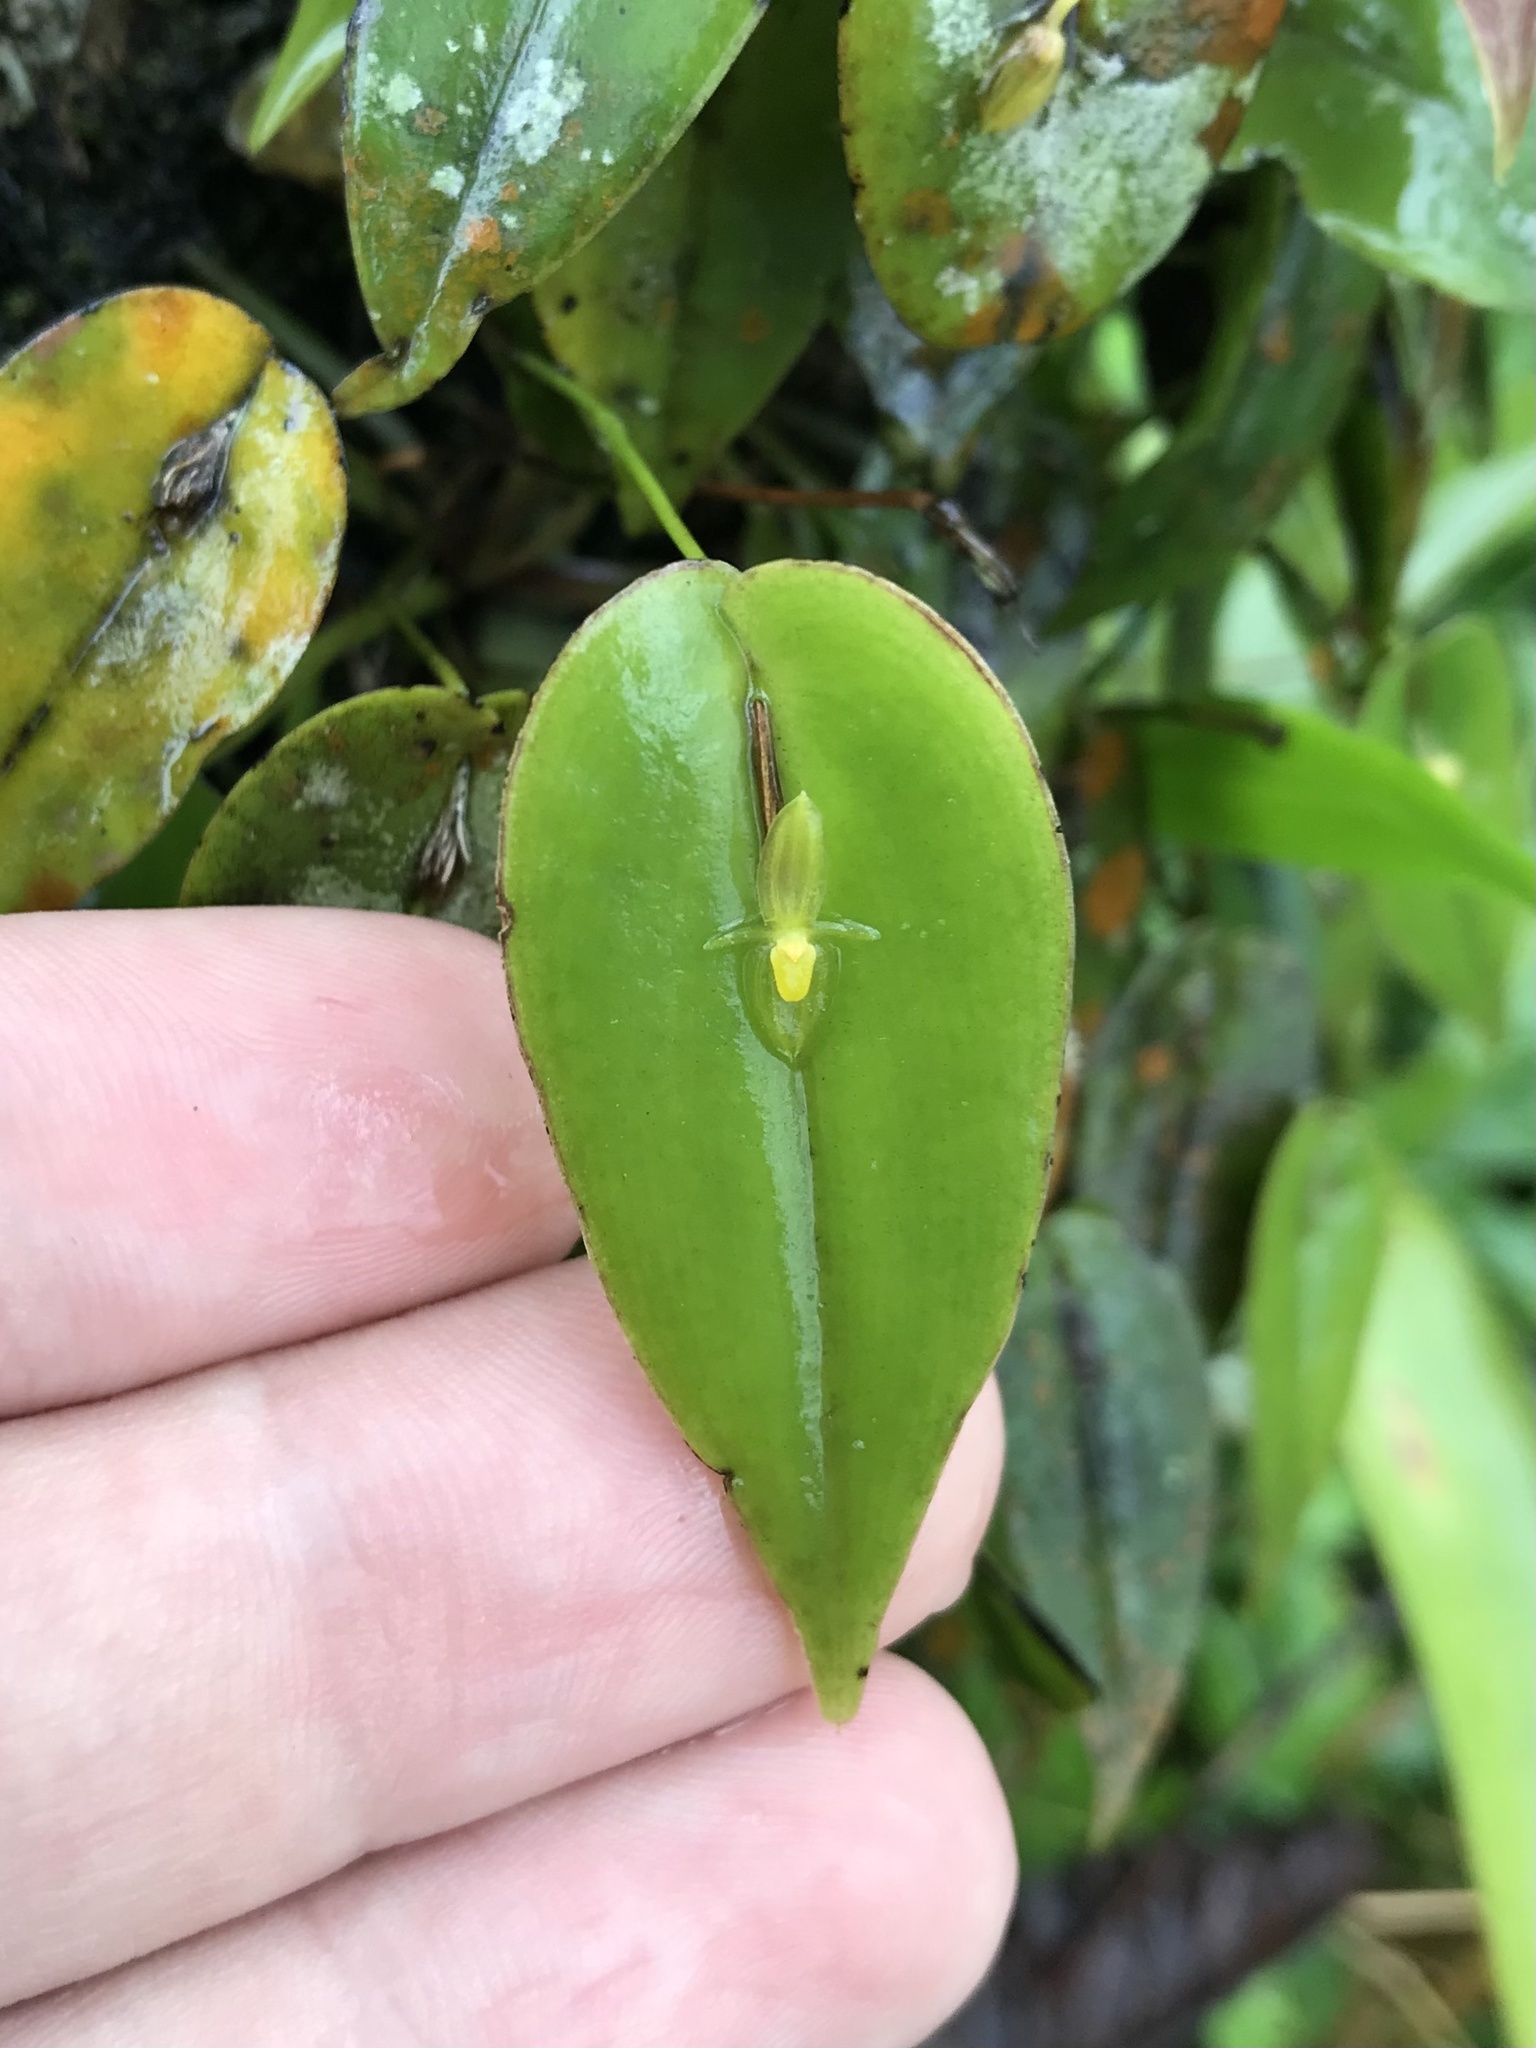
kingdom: Plantae
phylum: Tracheophyta
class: Liliopsida
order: Asparagales
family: Orchidaceae
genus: Pleurothallis
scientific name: Pleurothallis homalantha
